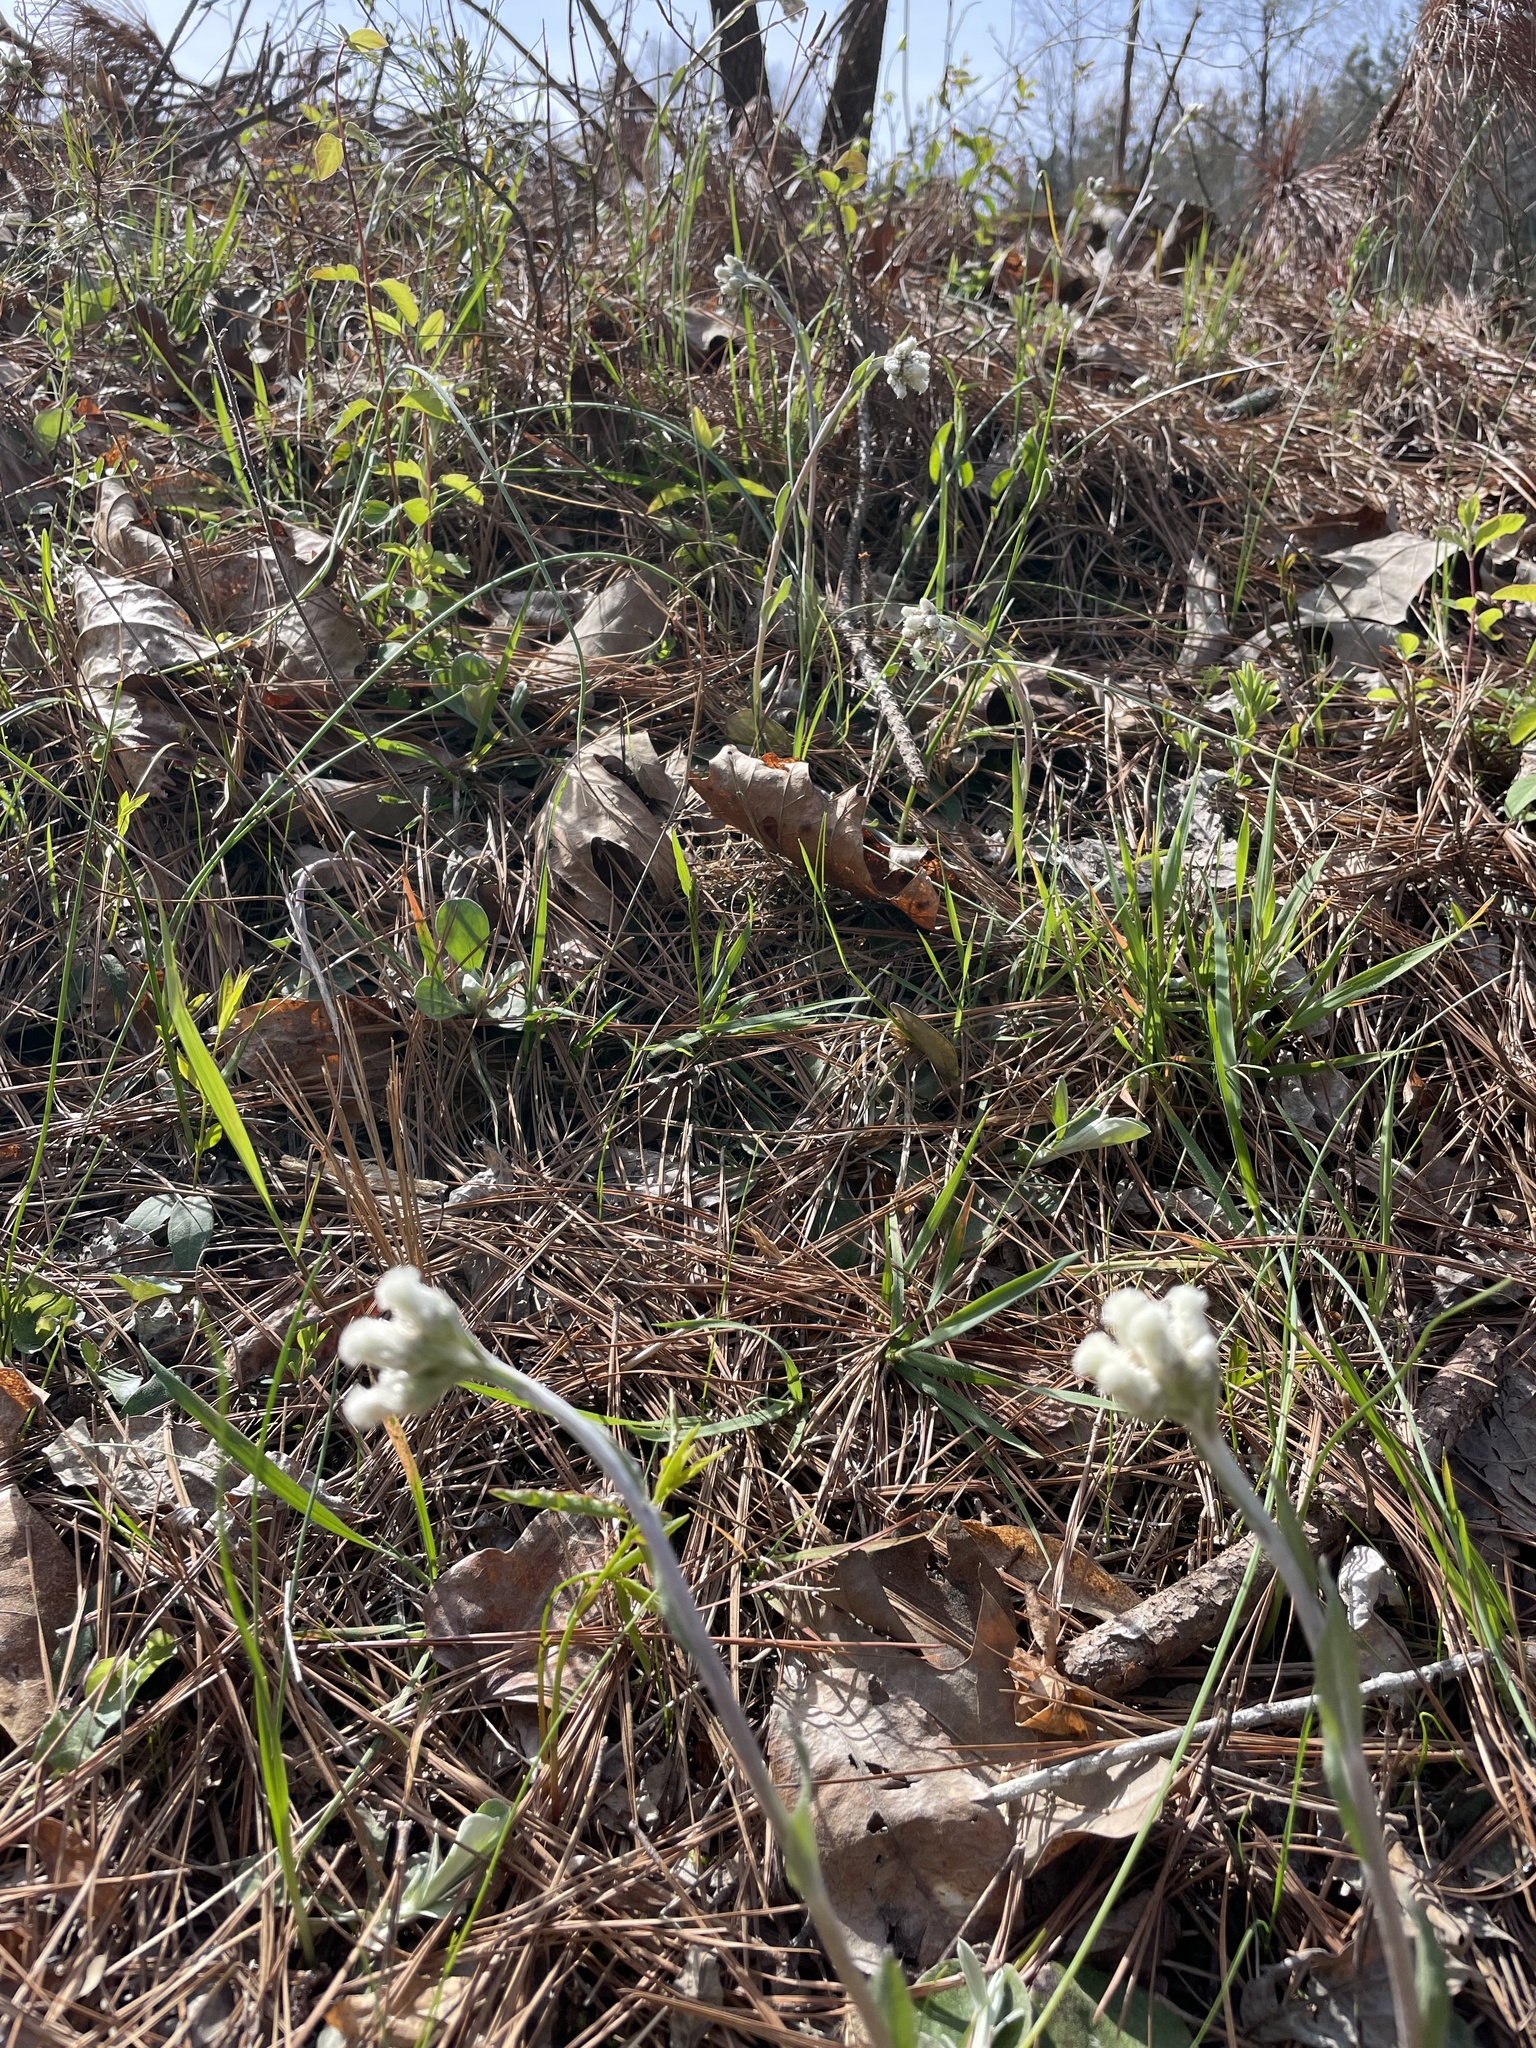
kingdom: Plantae
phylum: Tracheophyta
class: Magnoliopsida
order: Asterales
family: Asteraceae
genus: Antennaria
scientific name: Antennaria parlinii
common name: Parlin's pussytoes
